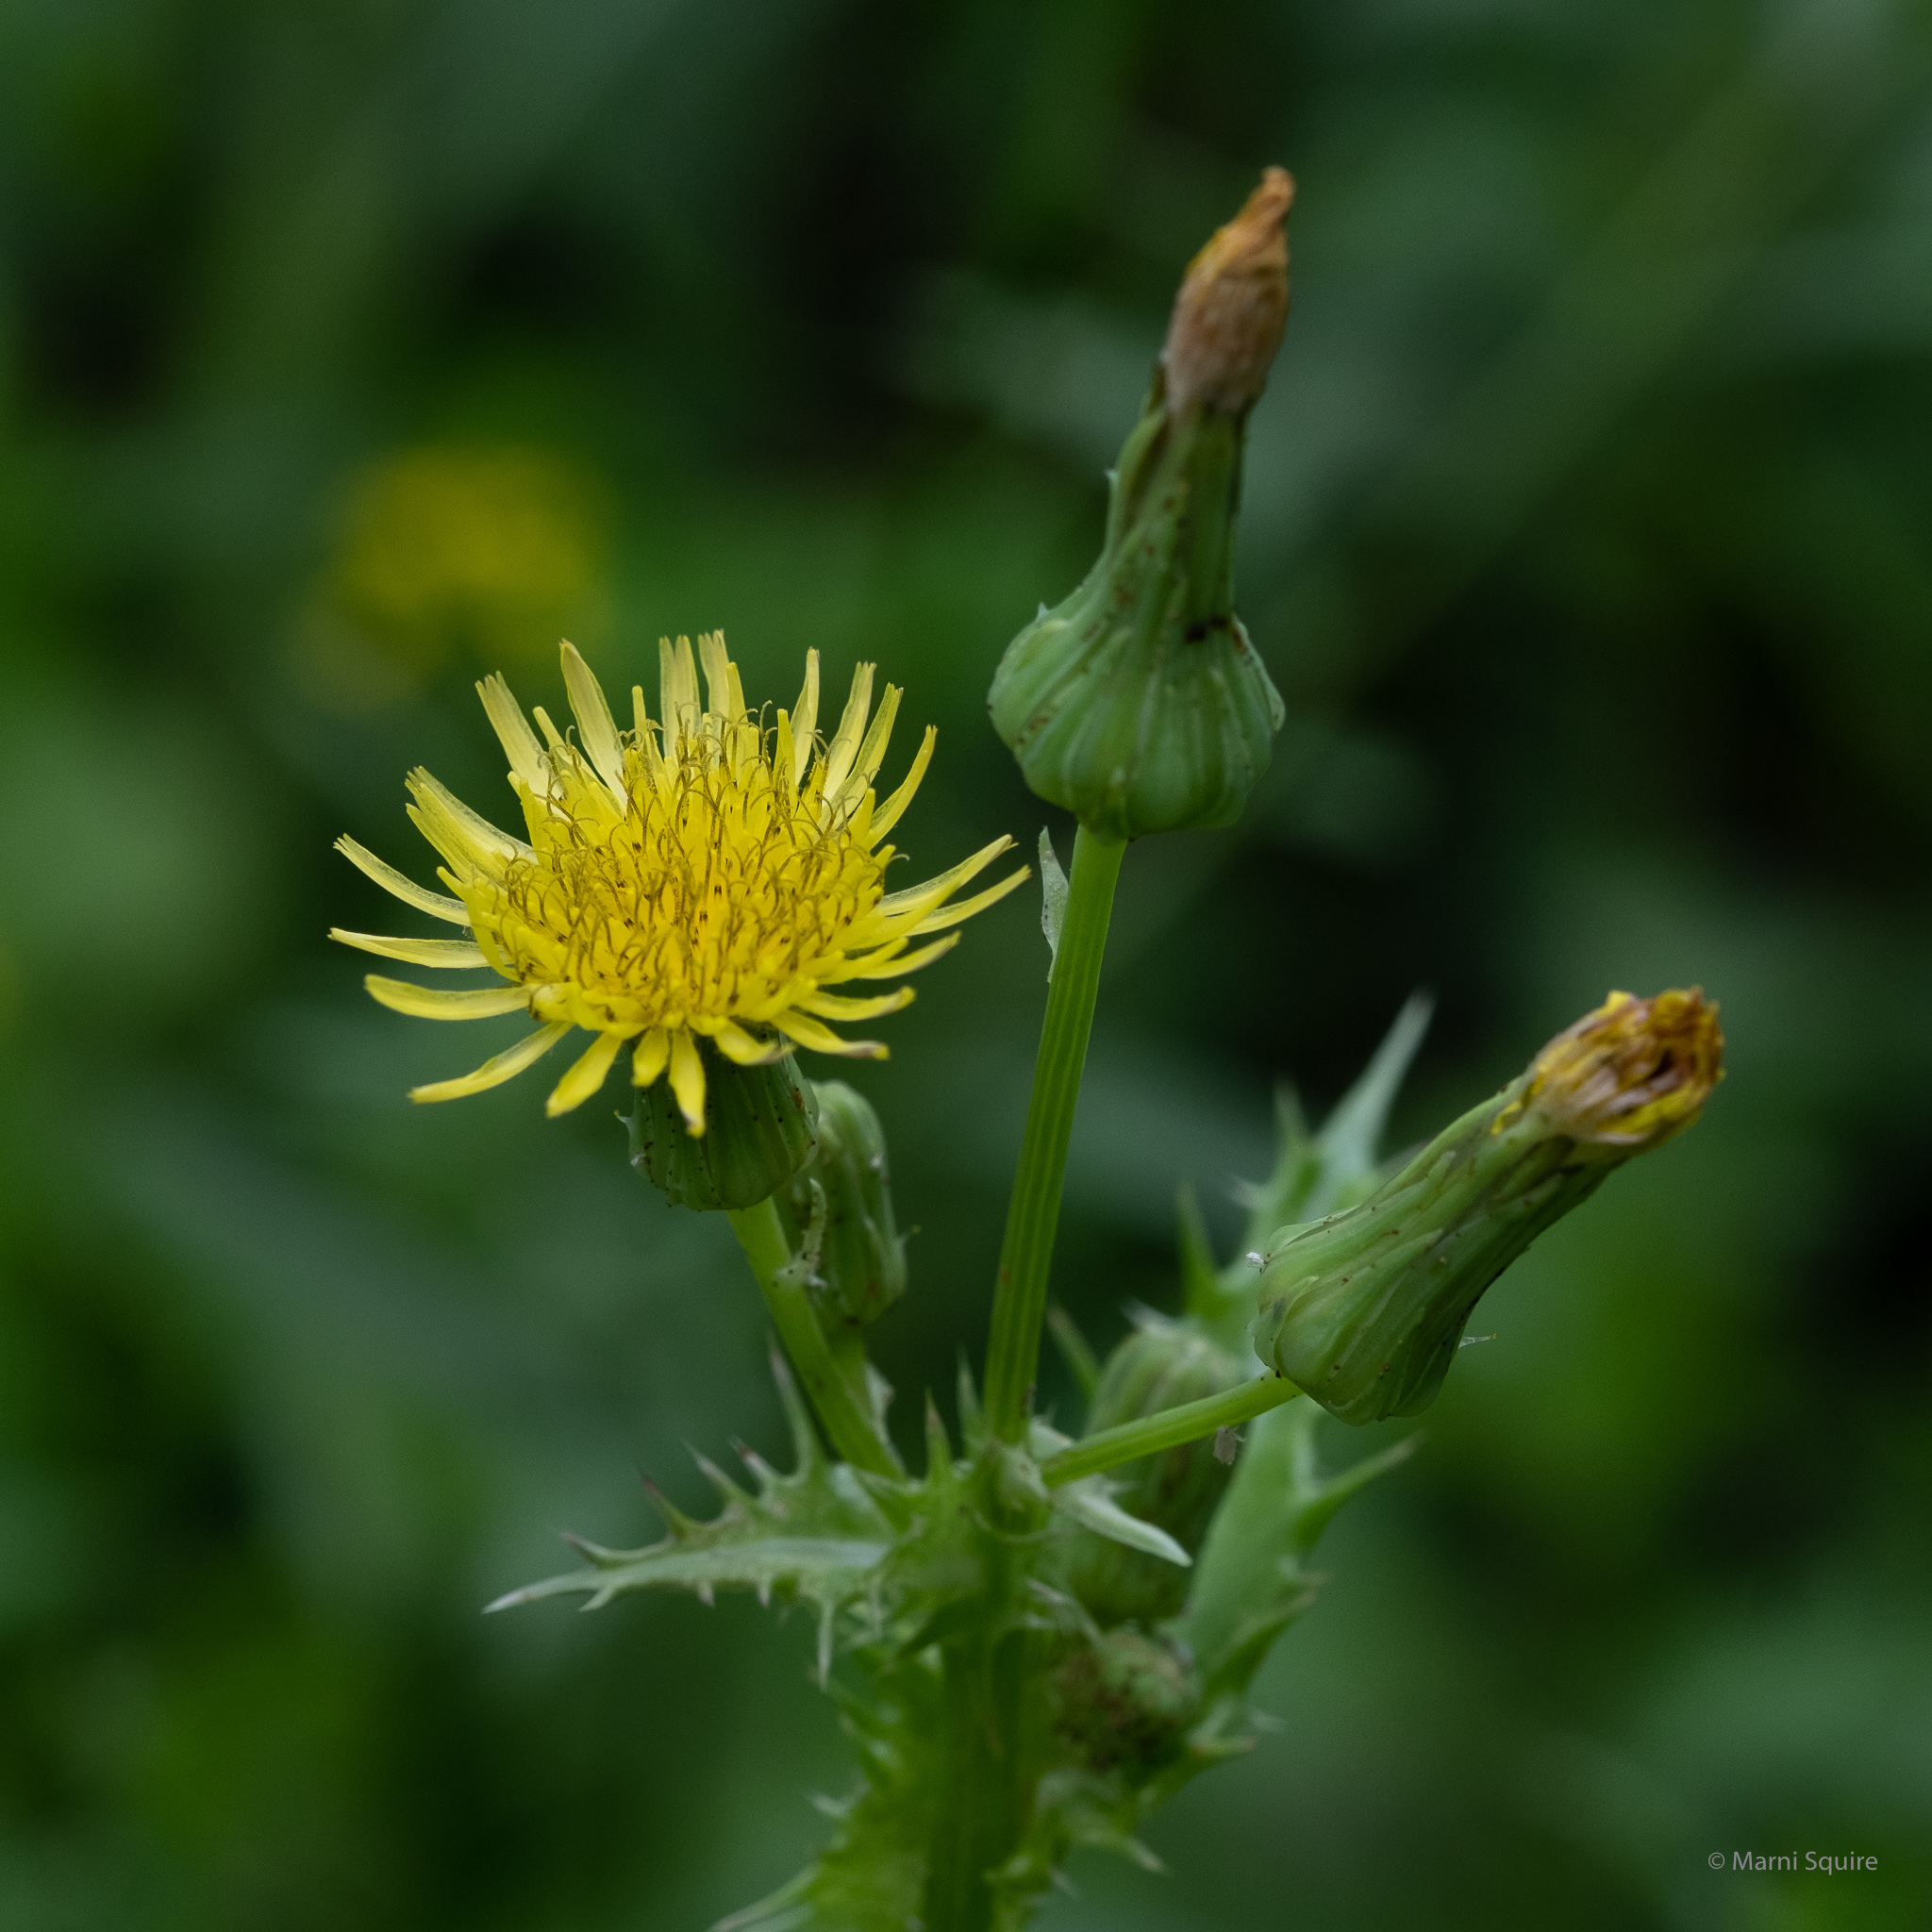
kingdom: Plantae
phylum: Tracheophyta
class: Magnoliopsida
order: Asterales
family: Asteraceae
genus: Sonchus
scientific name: Sonchus asper
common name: Prickly sow-thistle
